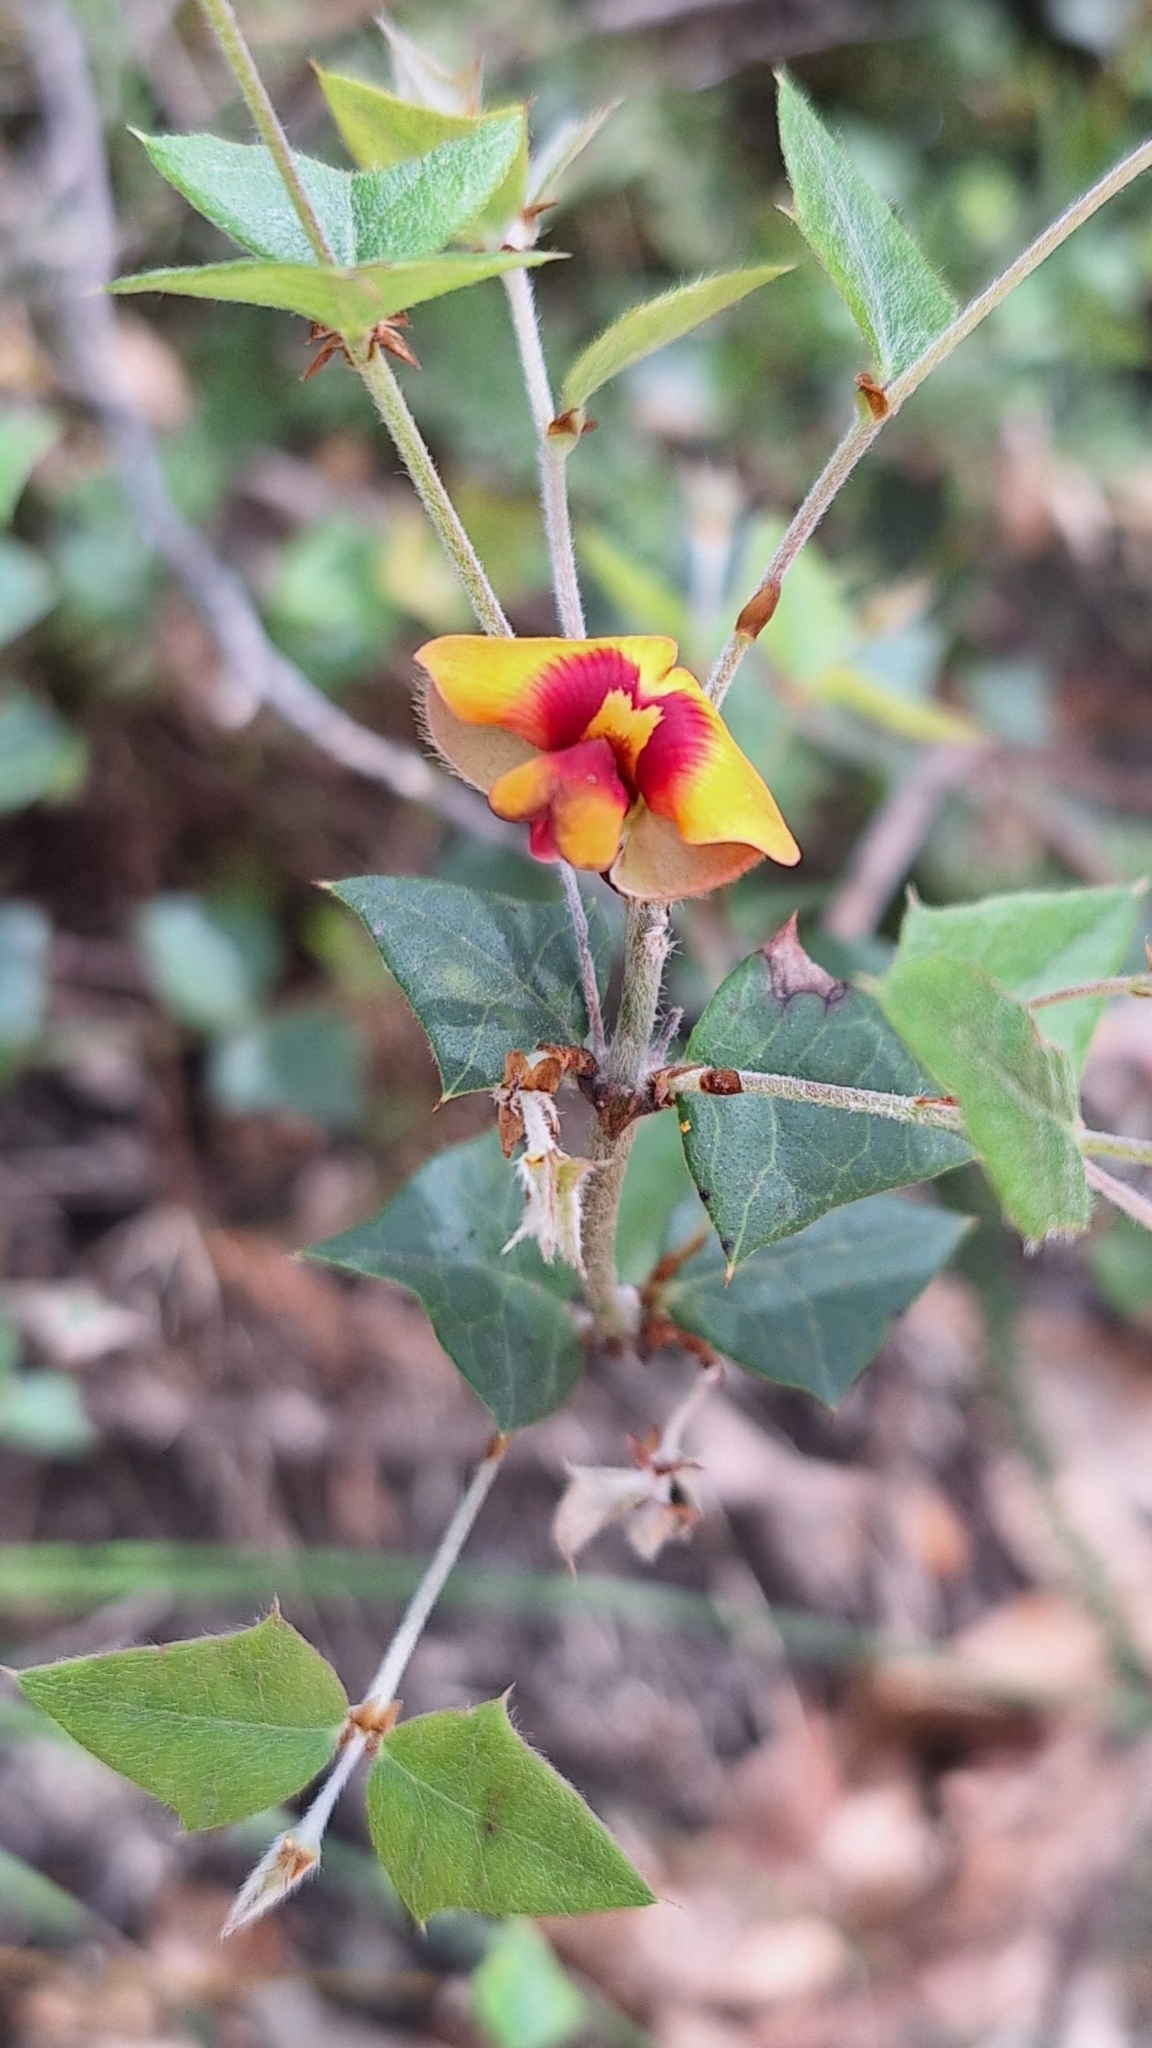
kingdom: Plantae
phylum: Tracheophyta
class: Magnoliopsida
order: Fabales
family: Fabaceae
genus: Platylobium
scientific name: Platylobium obtusangulum
